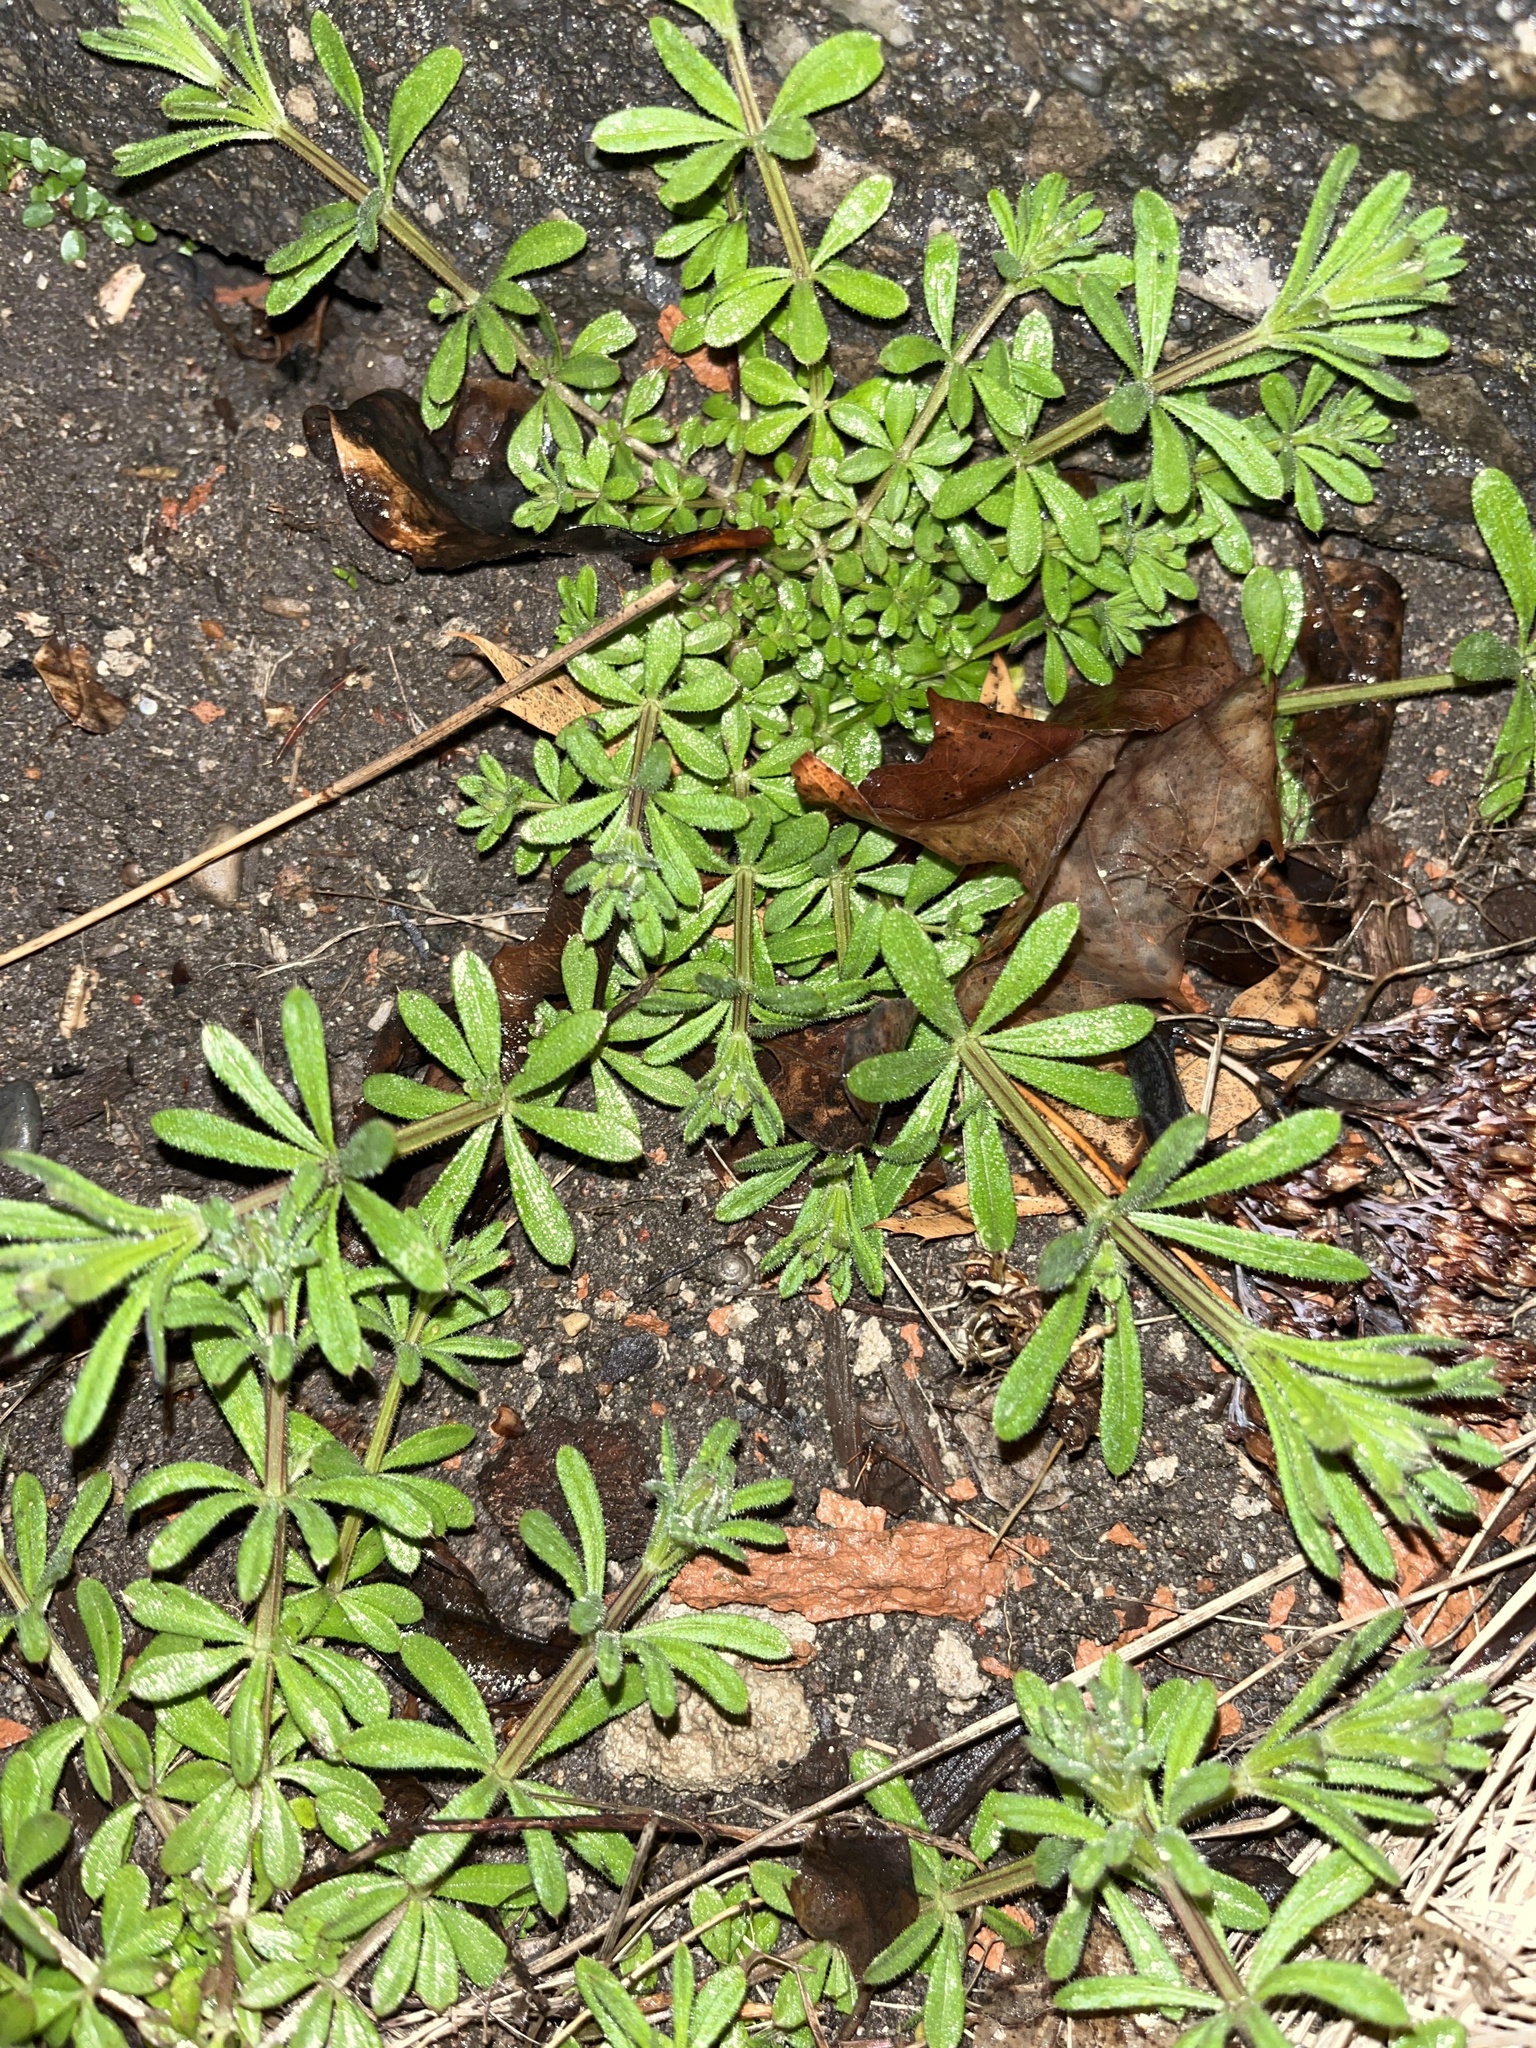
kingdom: Plantae
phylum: Tracheophyta
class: Magnoliopsida
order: Gentianales
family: Rubiaceae
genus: Galium
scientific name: Galium aparine
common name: Cleavers
